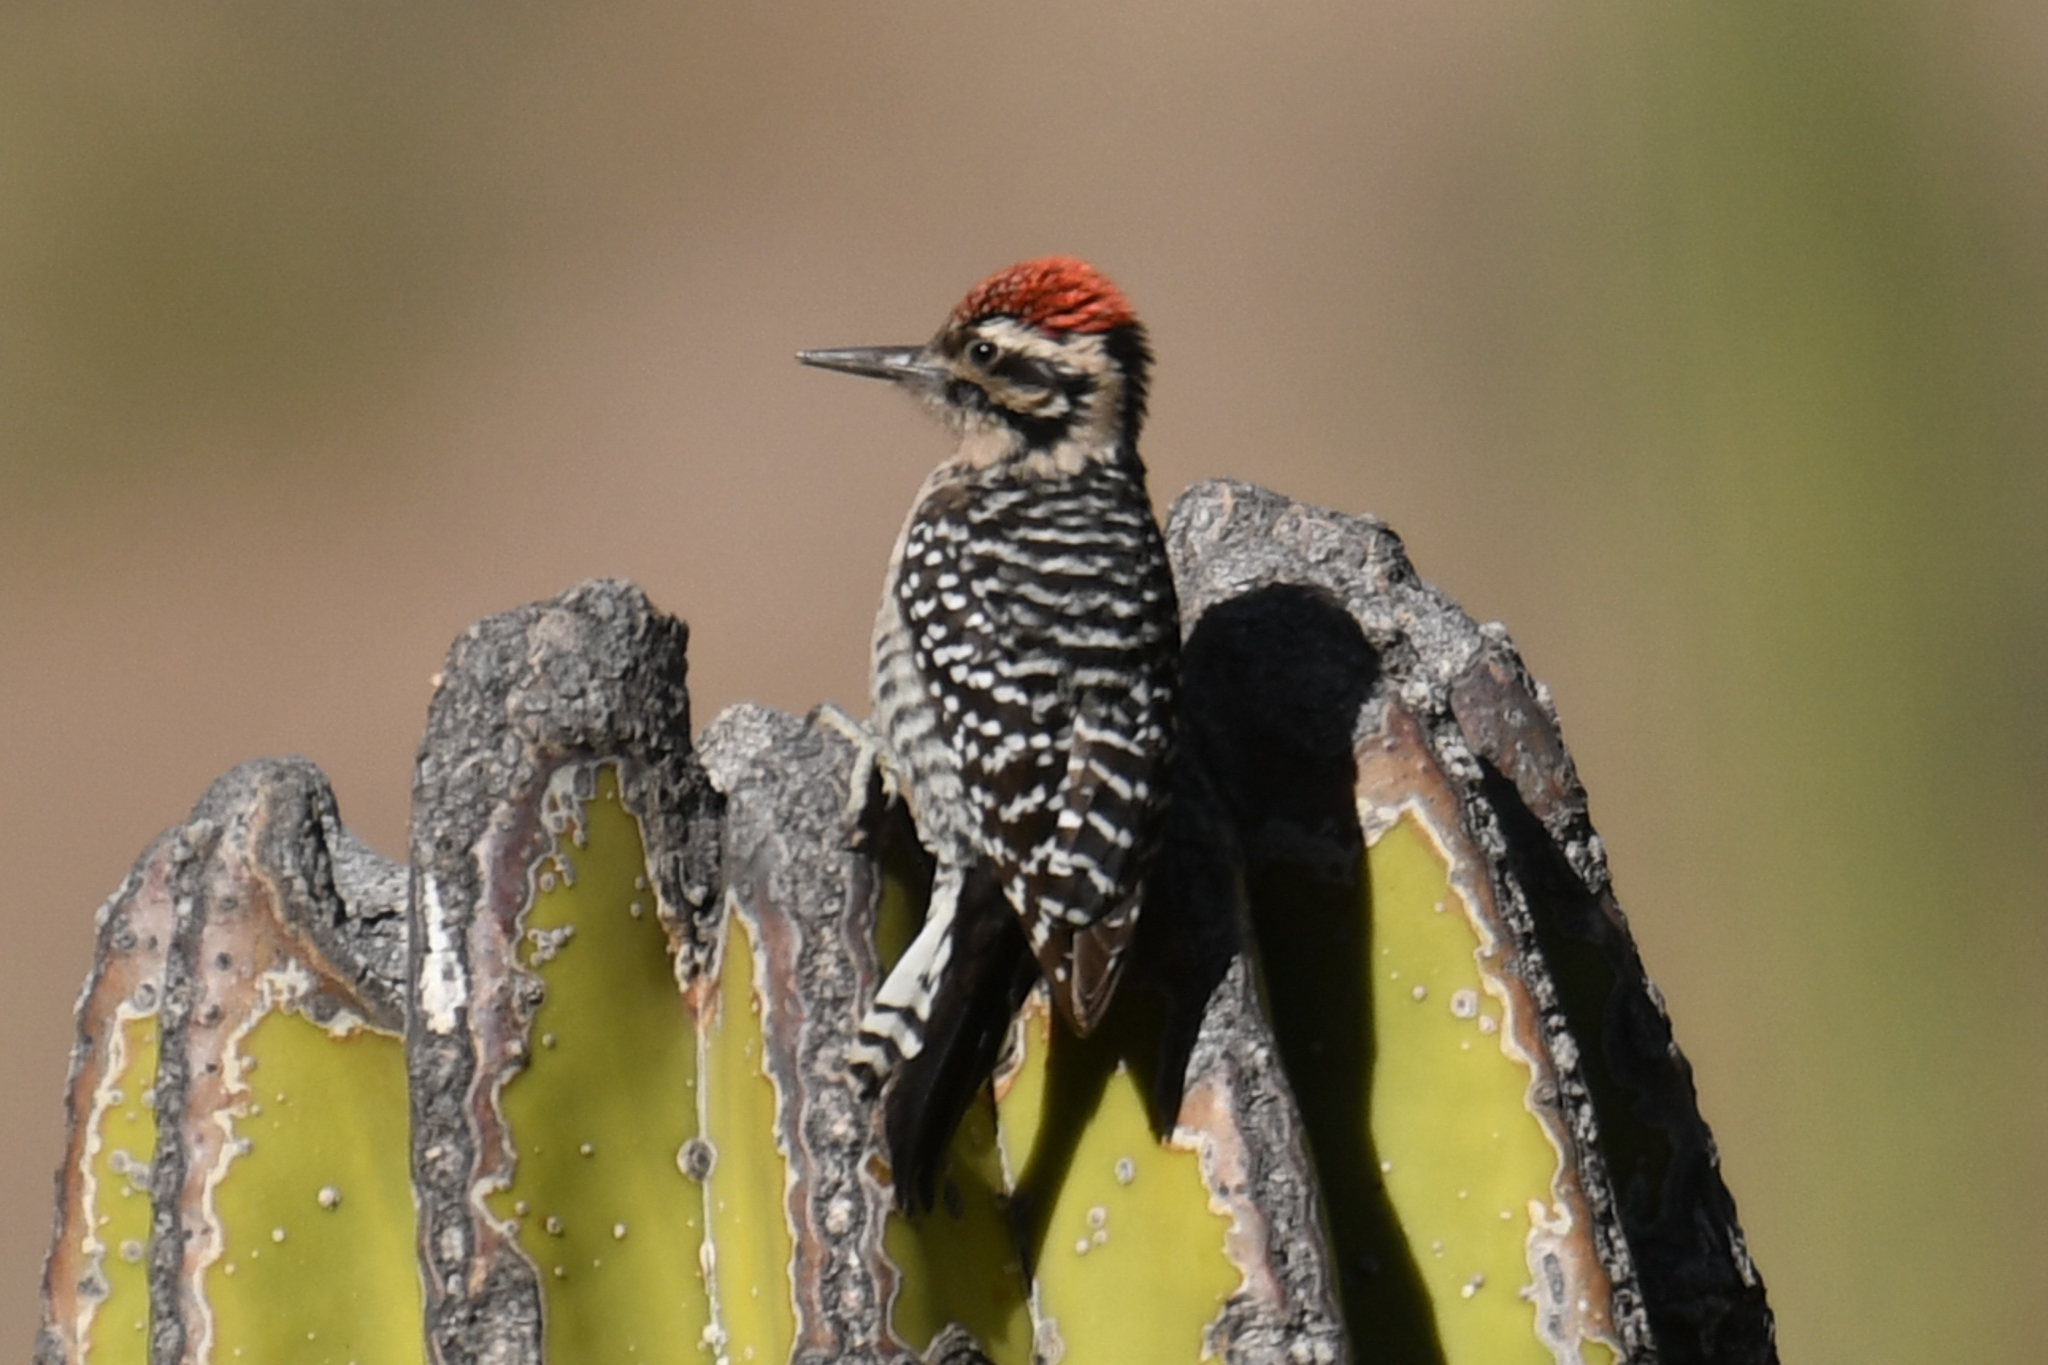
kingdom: Animalia
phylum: Chordata
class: Aves
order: Piciformes
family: Picidae
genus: Dryobates
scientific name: Dryobates scalaris
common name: Ladder-backed woodpecker
